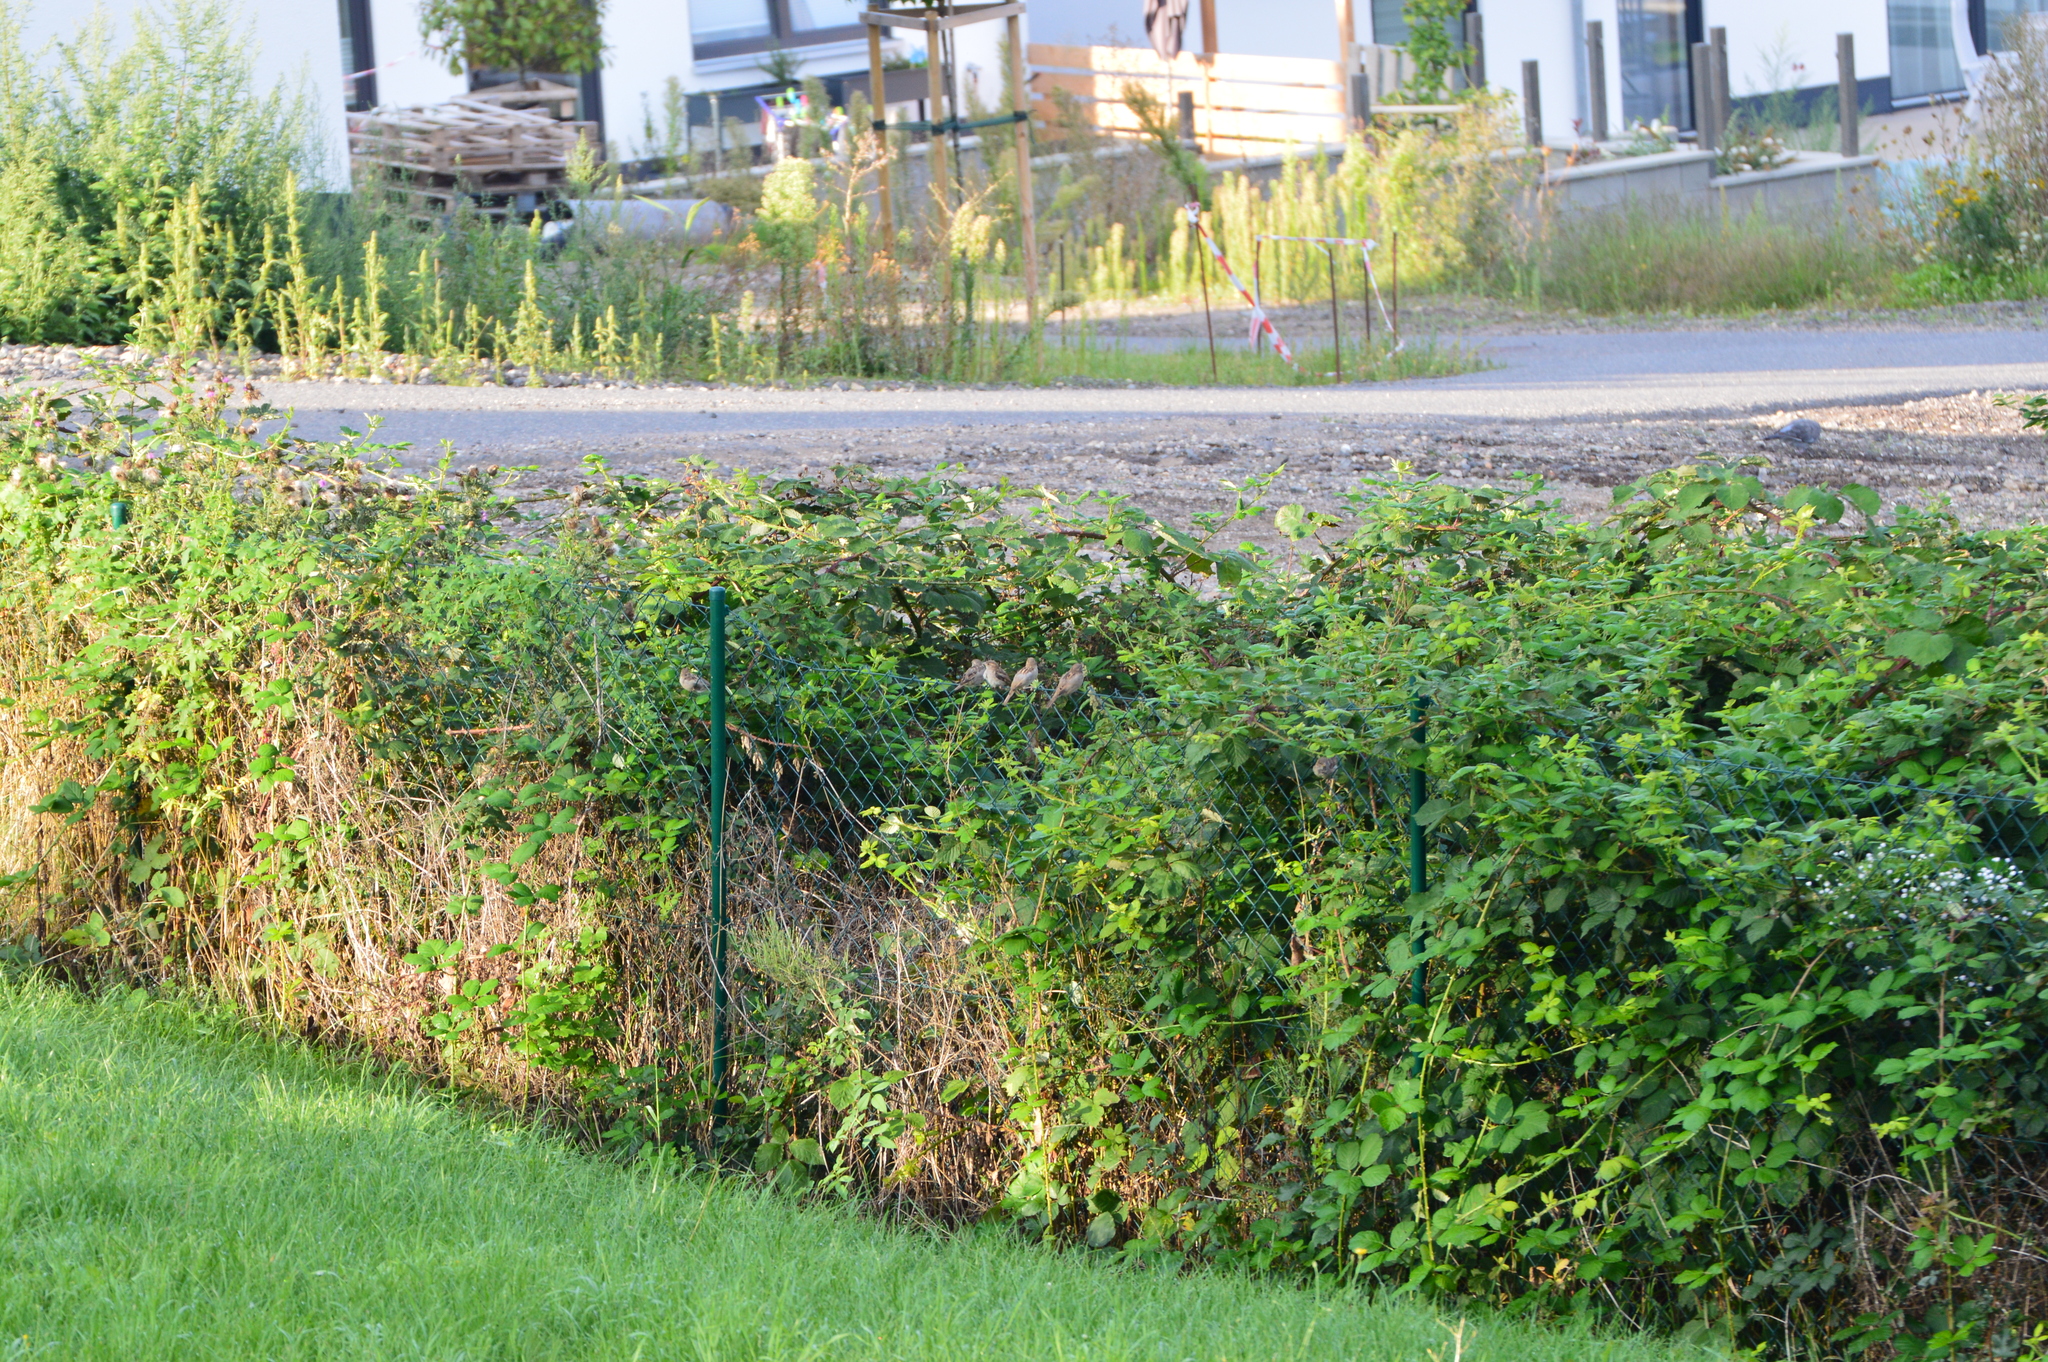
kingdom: Animalia
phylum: Chordata
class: Aves
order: Passeriformes
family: Passeridae
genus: Passer
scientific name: Passer domesticus
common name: House sparrow
